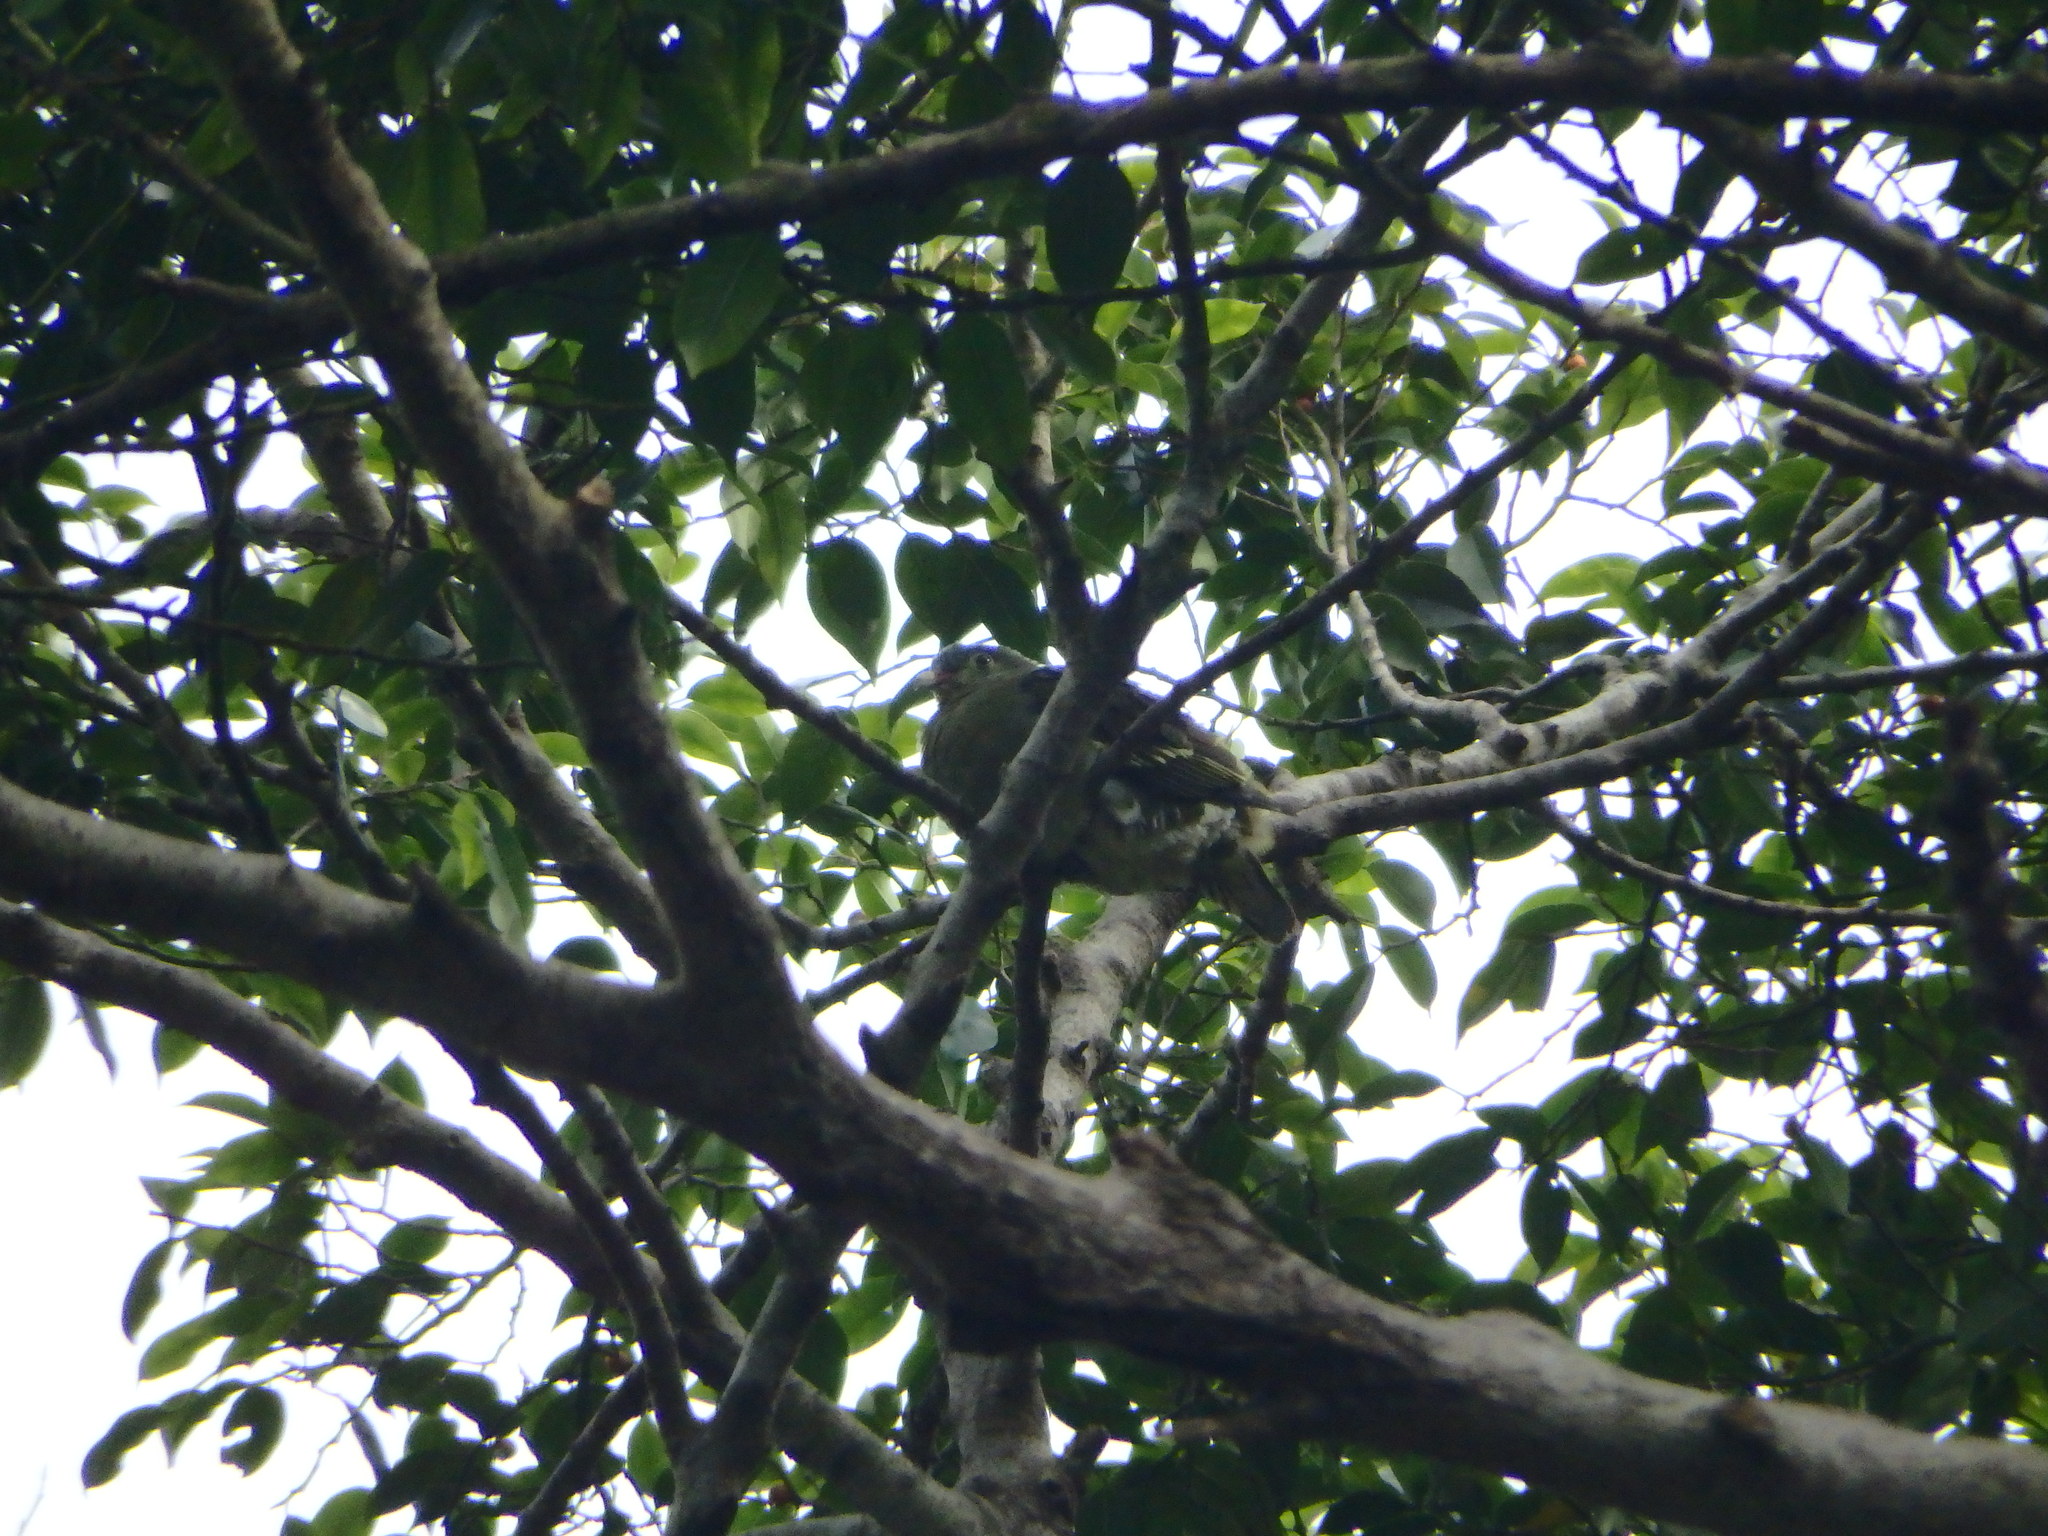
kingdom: Animalia
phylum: Chordata
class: Aves
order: Columbiformes
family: Columbidae
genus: Treron
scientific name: Treron curvirostra
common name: Thick-billed green pigeon
